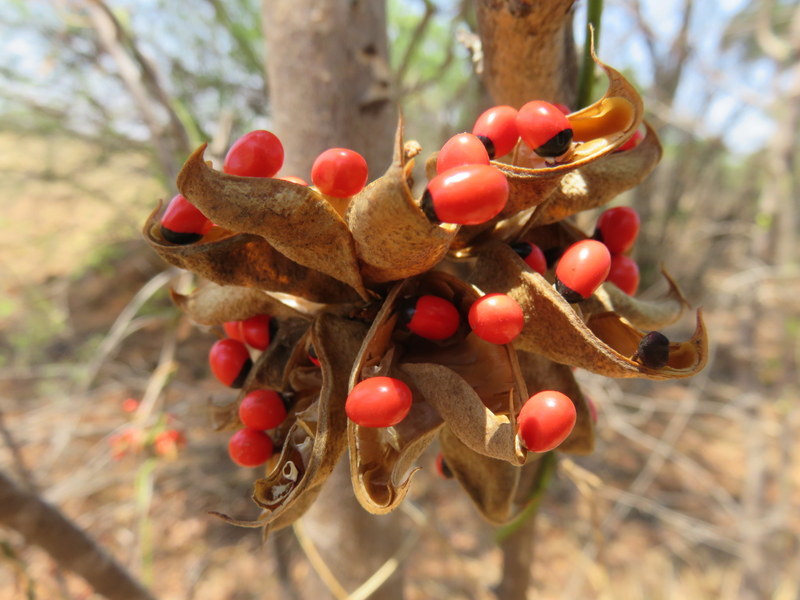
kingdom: Plantae
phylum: Tracheophyta
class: Magnoliopsida
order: Fabales
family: Fabaceae
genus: Abrus
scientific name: Abrus precatorius
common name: Rosarypea
